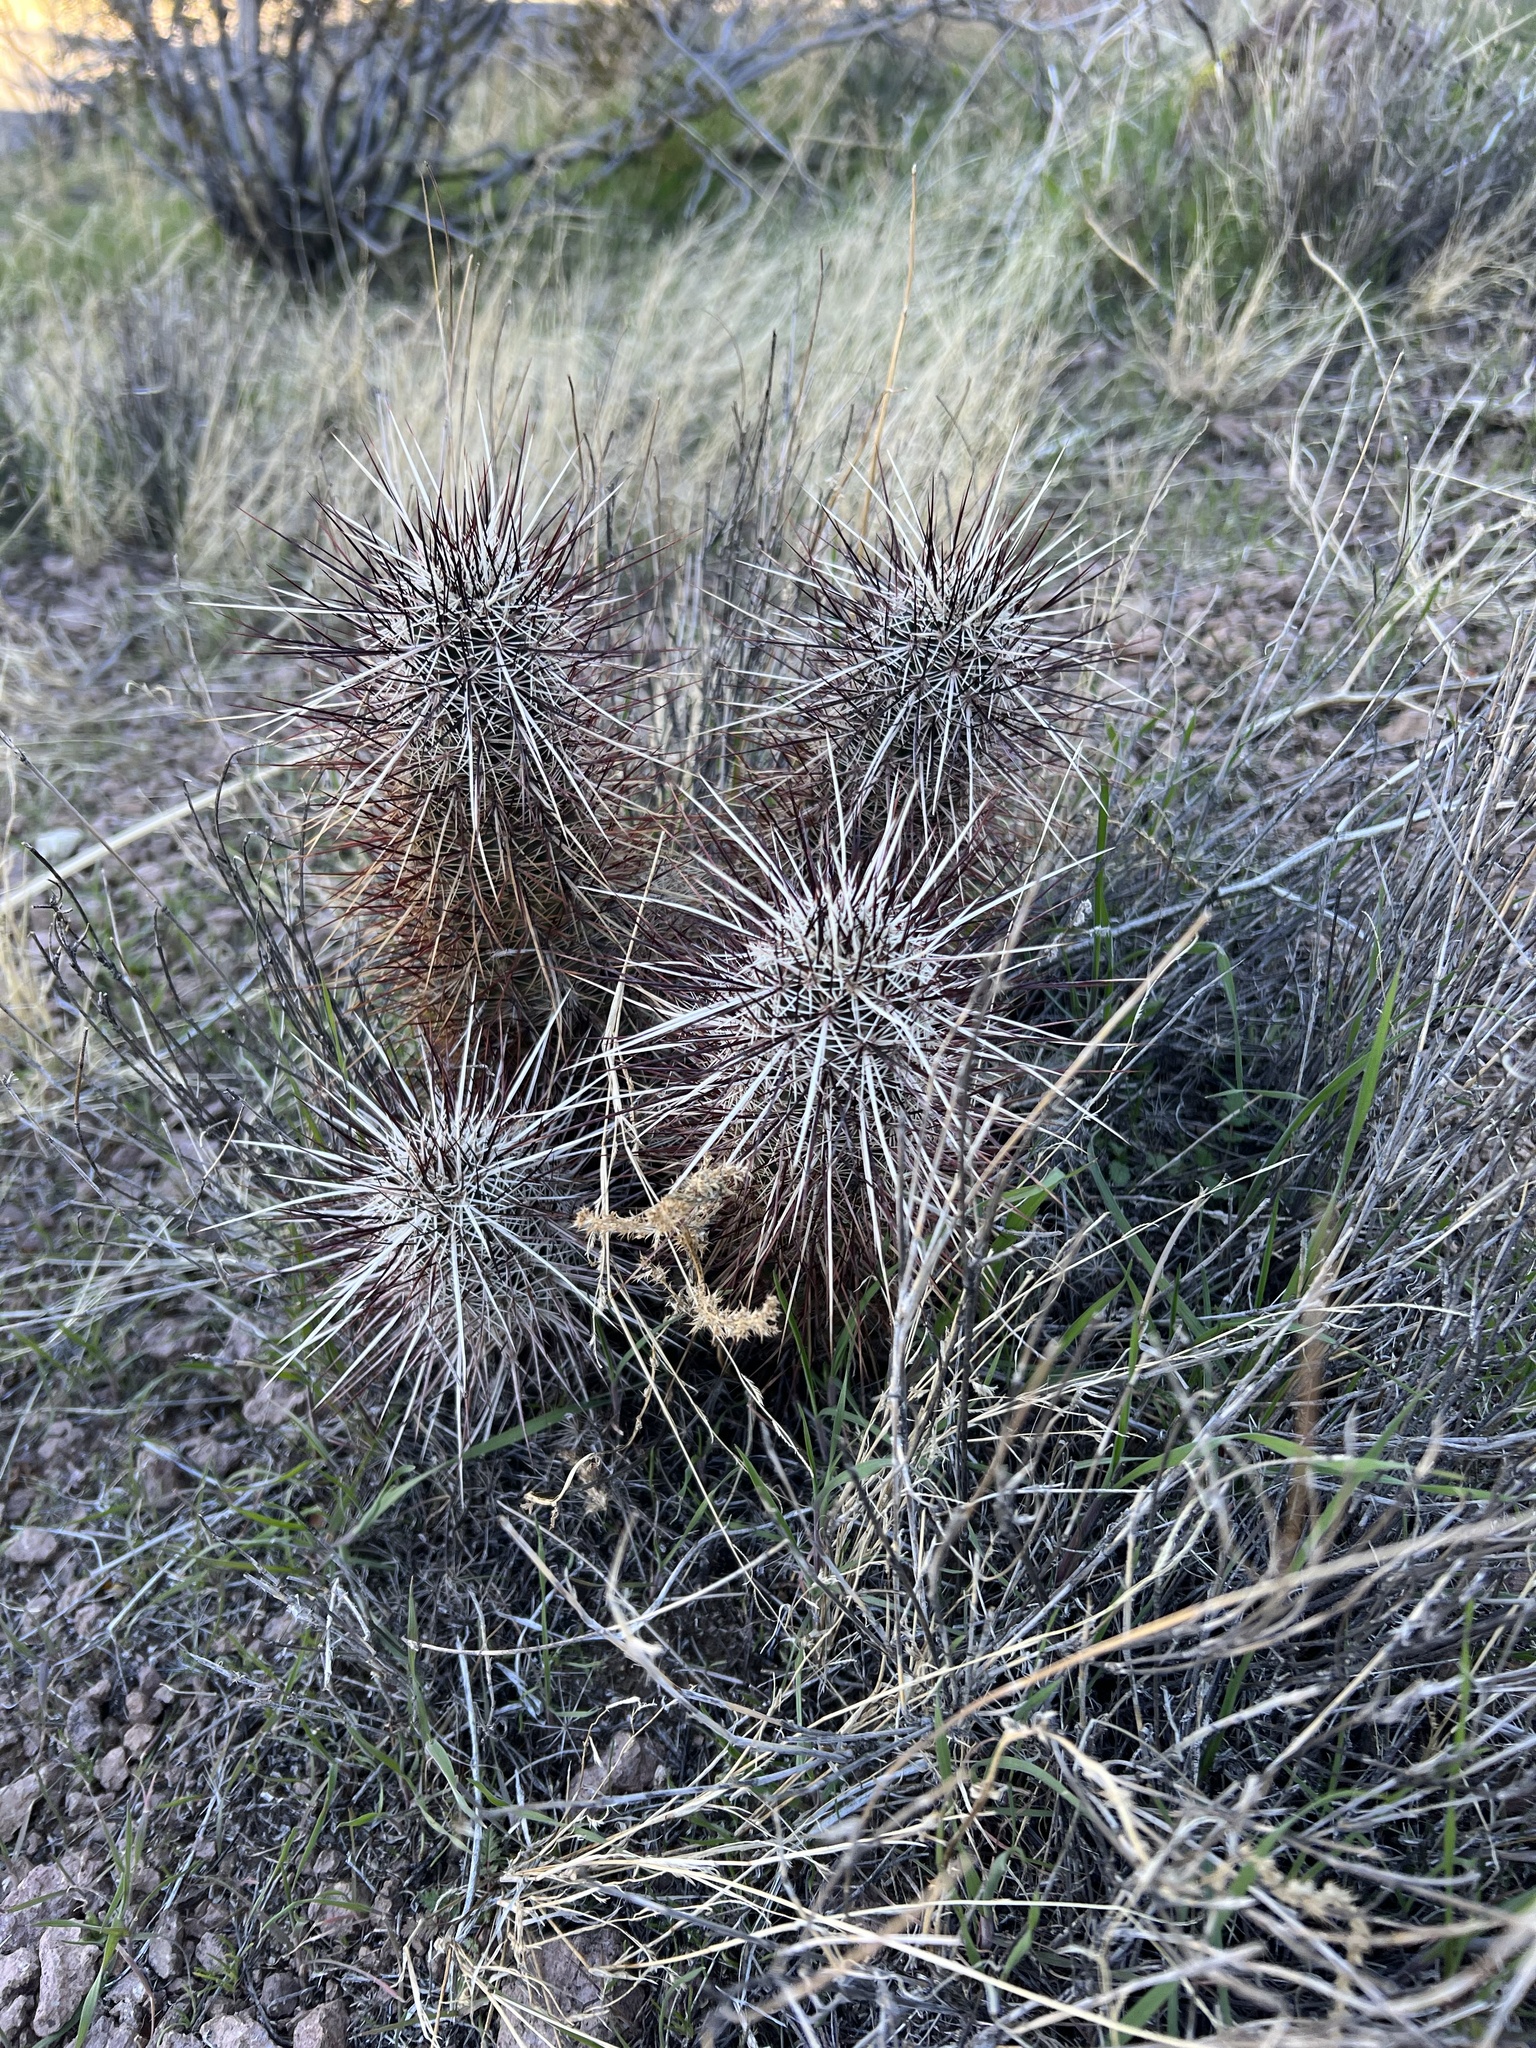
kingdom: Plantae
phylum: Tracheophyta
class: Magnoliopsida
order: Caryophyllales
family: Cactaceae
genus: Echinocereus
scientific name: Echinocereus engelmannii
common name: Engelmann's hedgehog cactus
